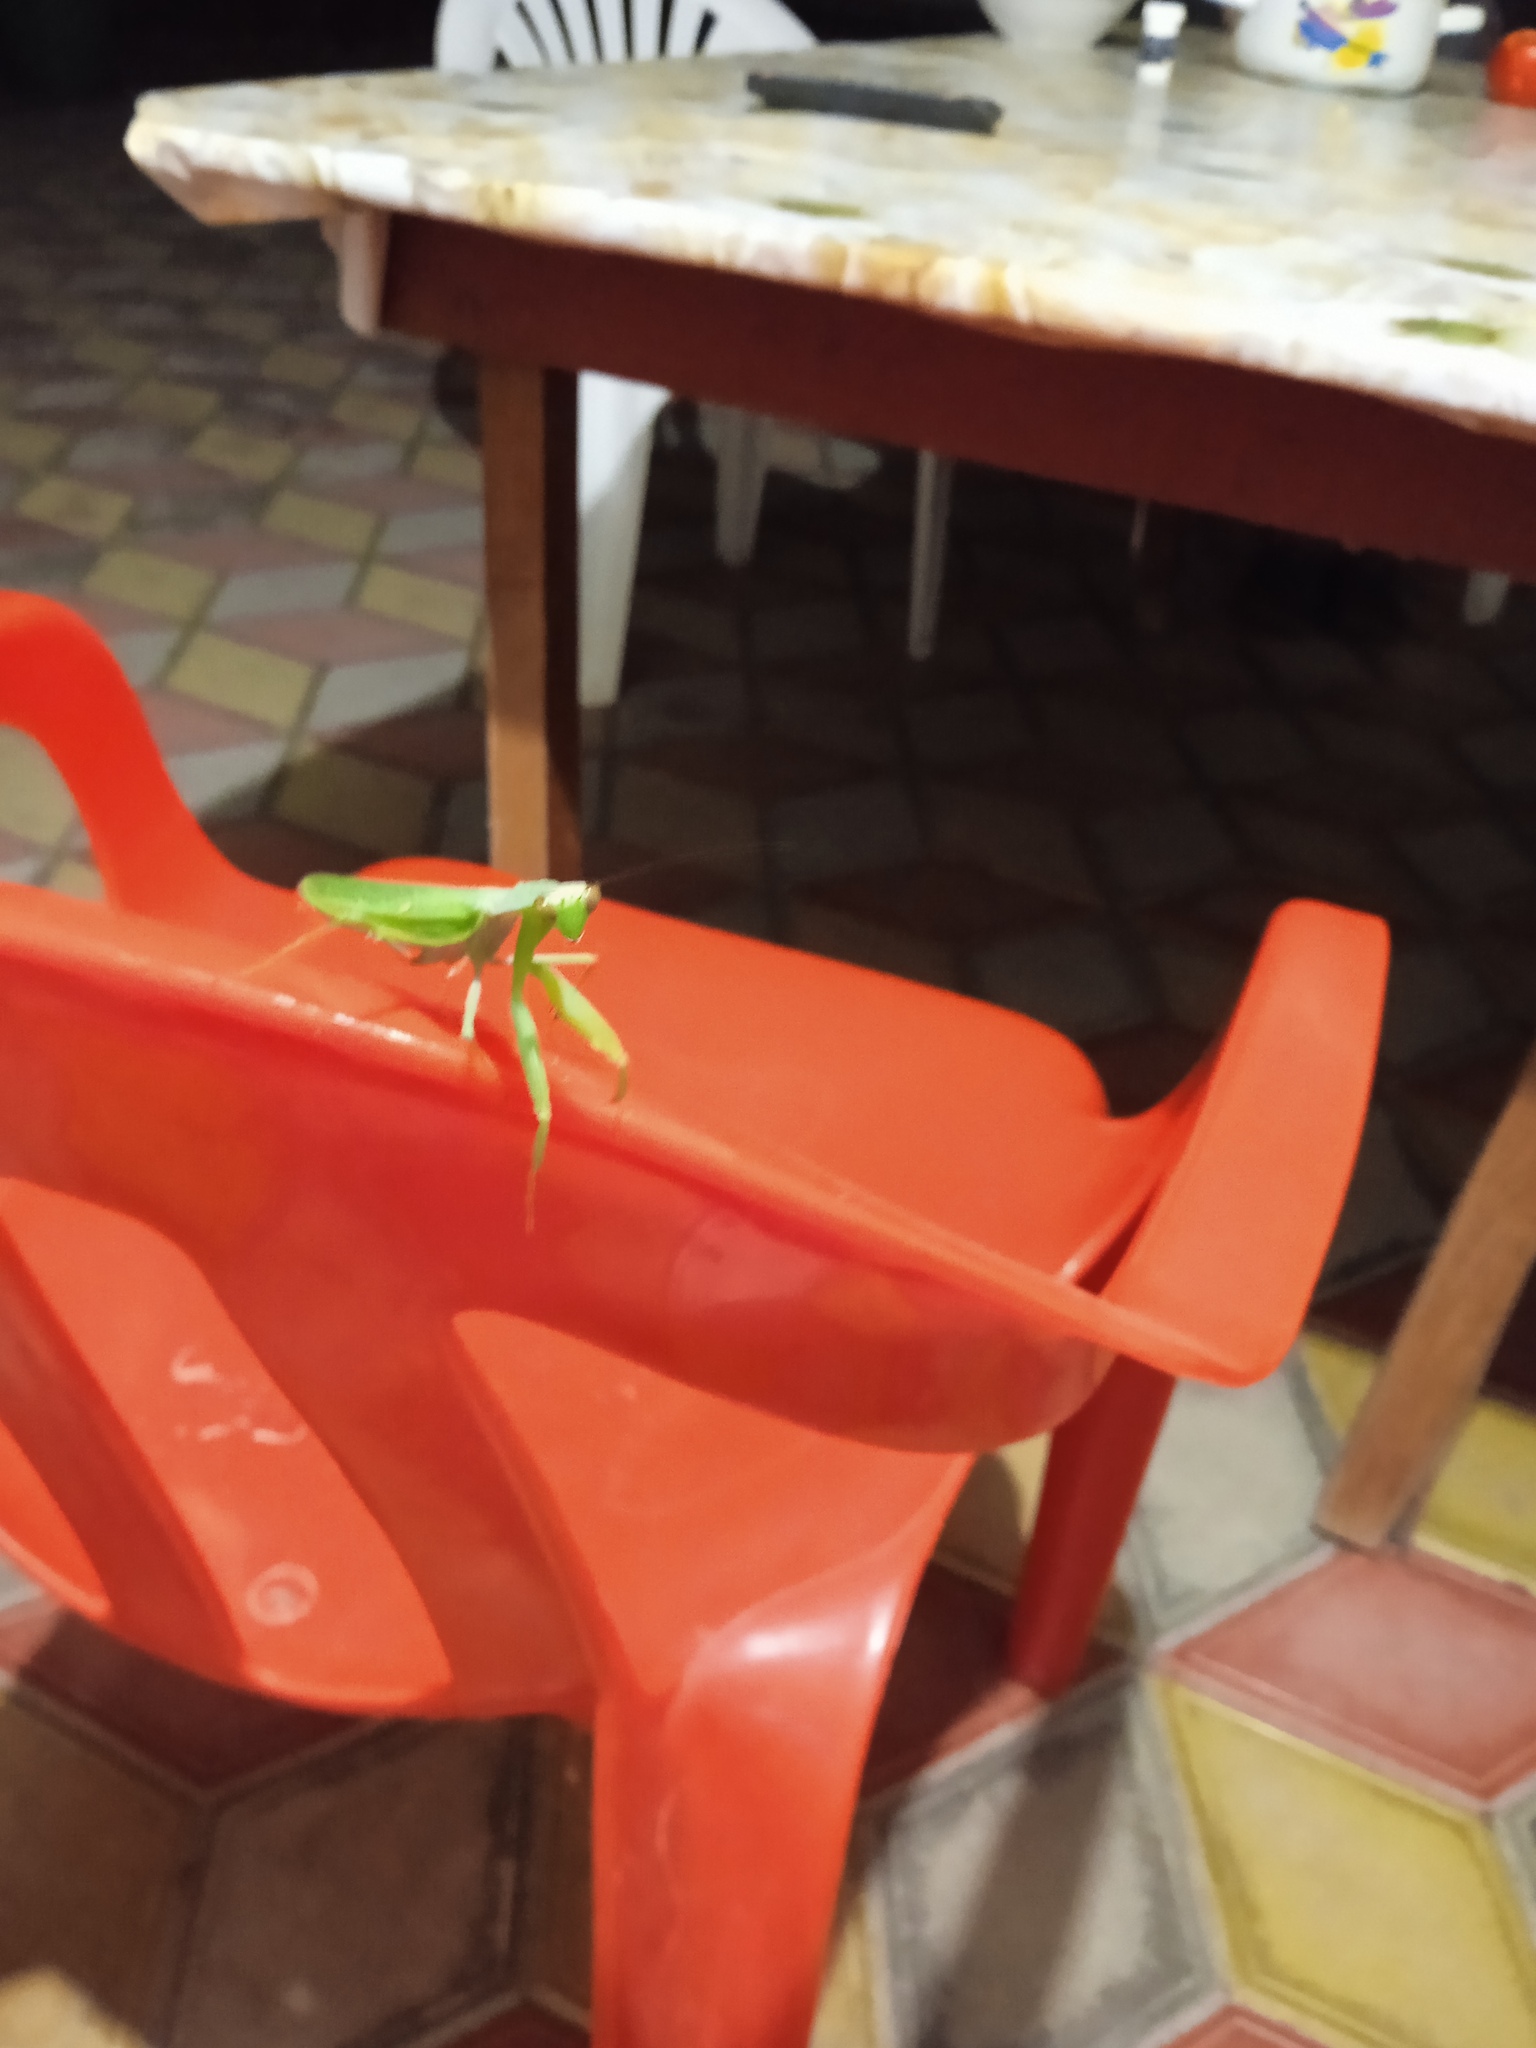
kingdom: Animalia
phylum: Arthropoda
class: Insecta
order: Mantodea
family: Mantidae
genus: Hierodula
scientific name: Hierodula transcaucasica
